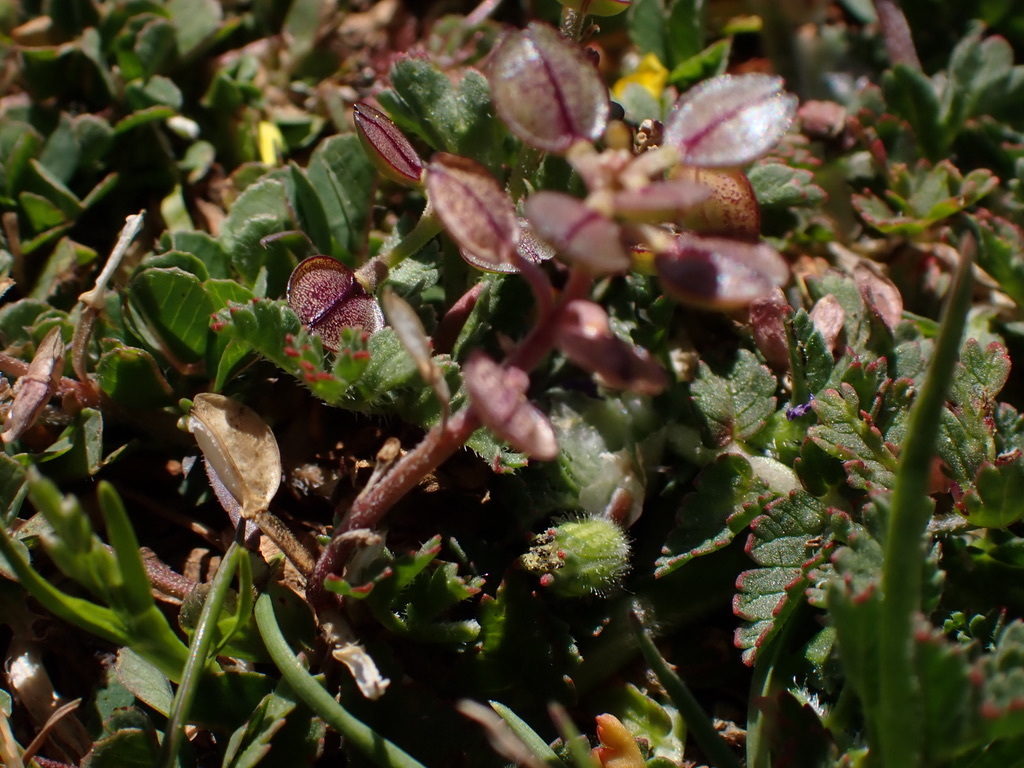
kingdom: Plantae
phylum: Tracheophyta
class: Magnoliopsida
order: Brassicales
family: Brassicaceae
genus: Lepidium
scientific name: Lepidium nitidum
